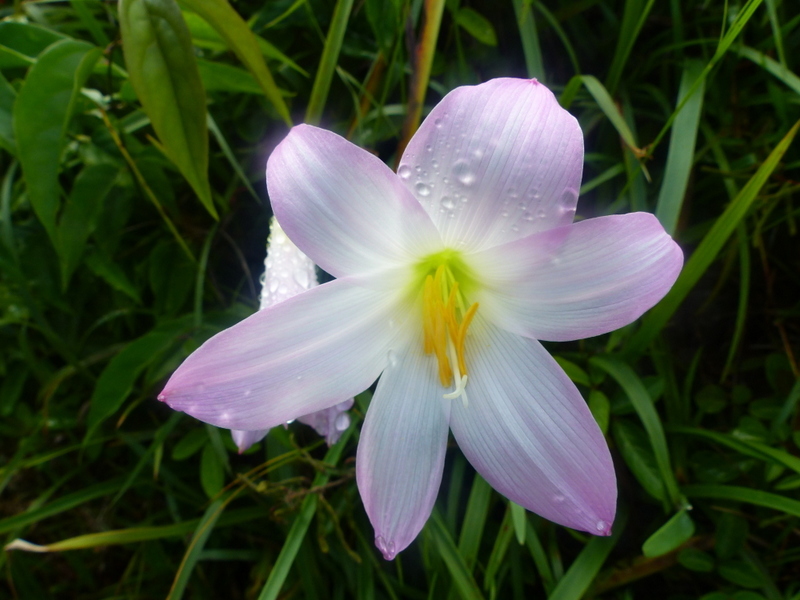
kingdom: Plantae
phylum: Tracheophyta
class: Liliopsida
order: Asparagales
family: Amaryllidaceae
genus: Zephyranthes
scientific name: Zephyranthes robusta
